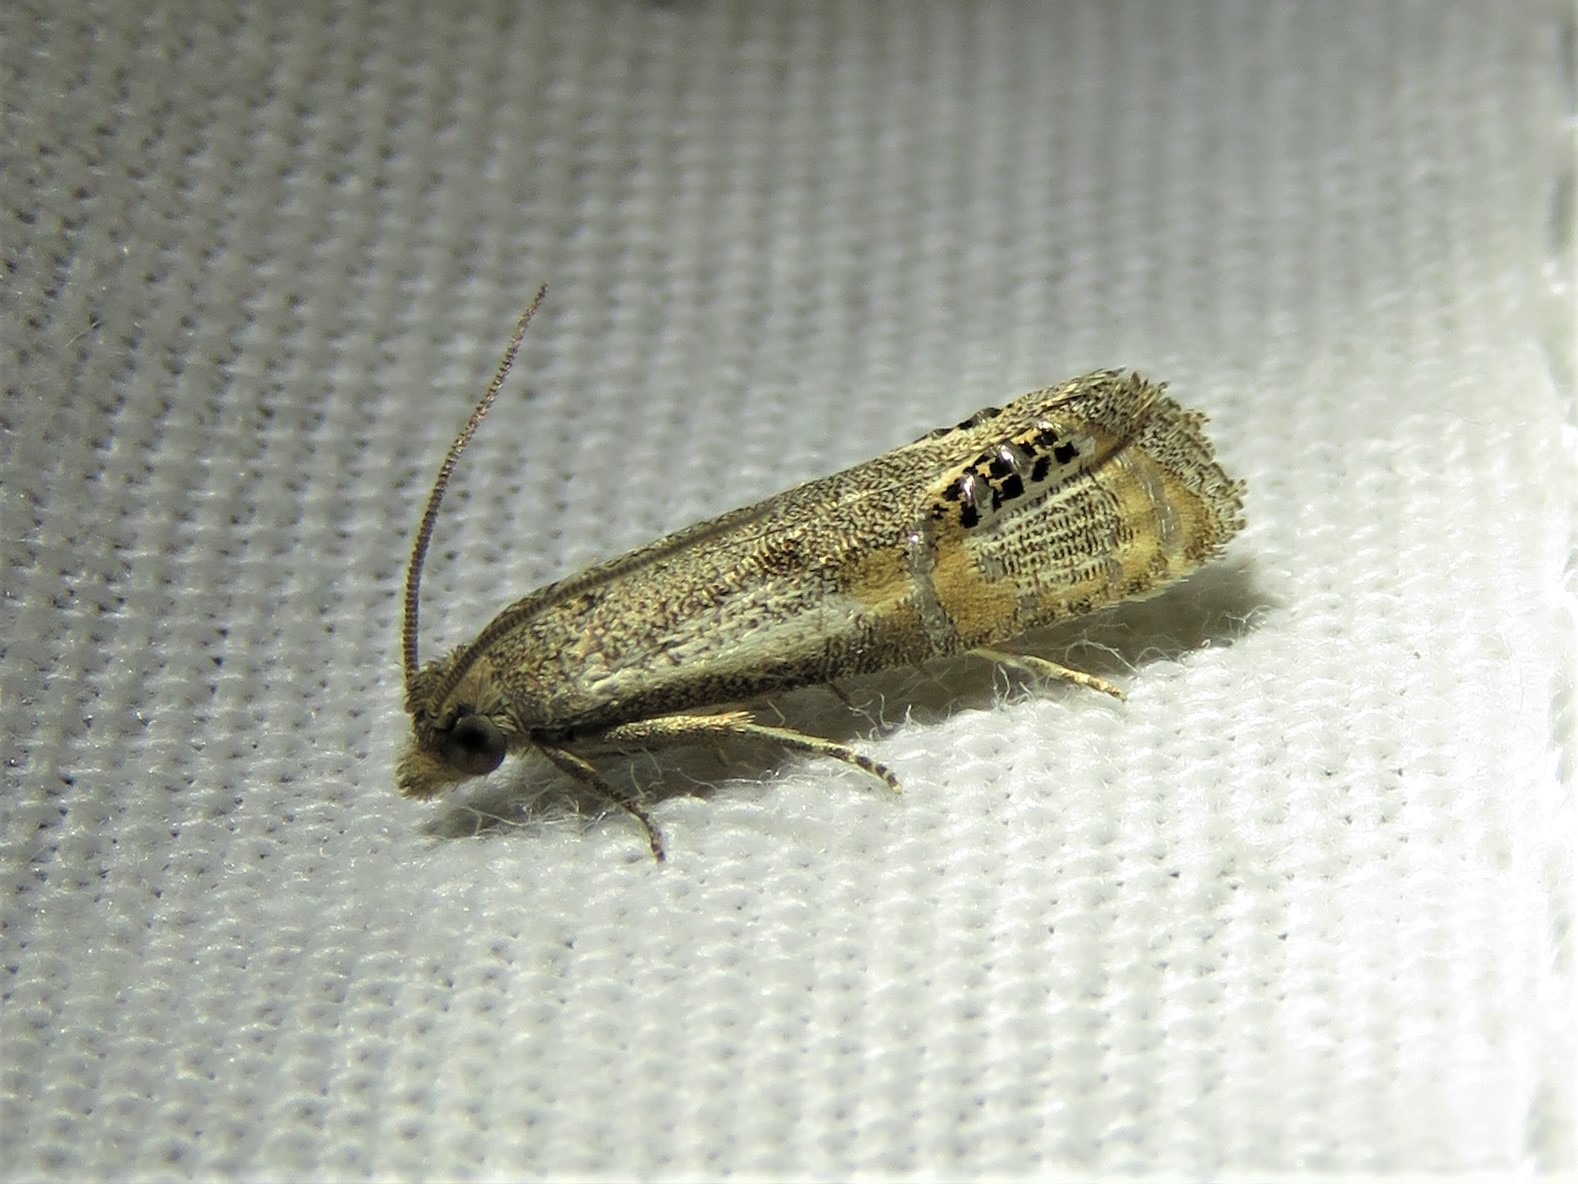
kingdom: Animalia
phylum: Arthropoda
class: Insecta
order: Lepidoptera
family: Tortricidae
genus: Pelochrista
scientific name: Pelochrista scintillana
